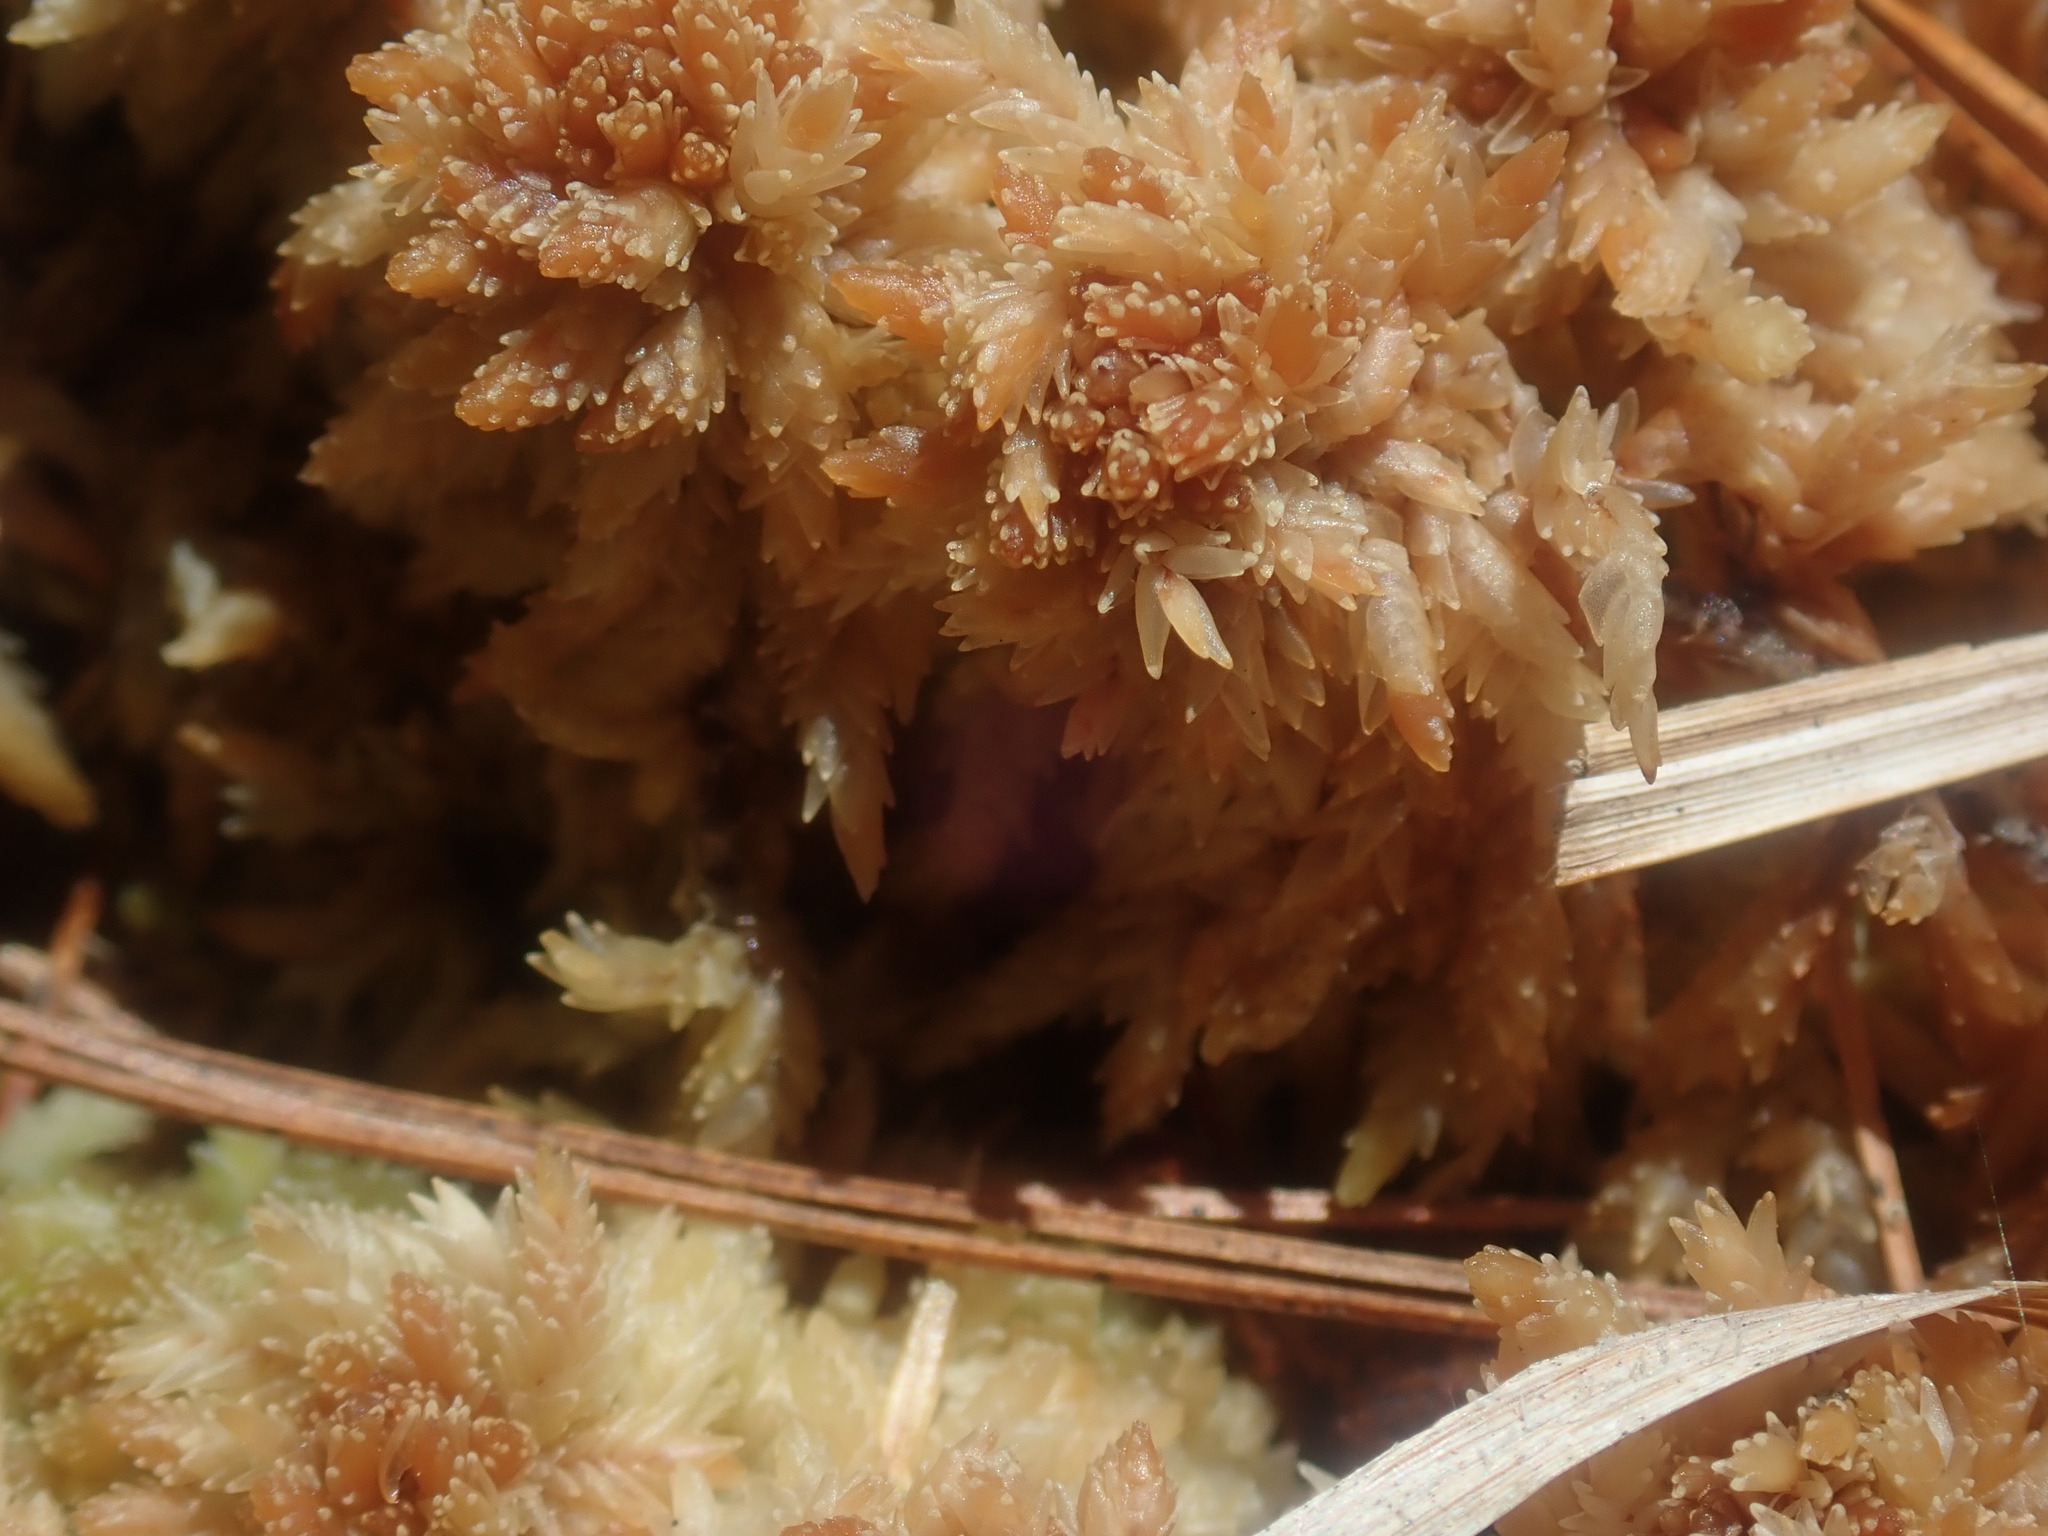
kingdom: Plantae
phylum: Bryophyta
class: Sphagnopsida
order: Sphagnales
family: Sphagnaceae
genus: Sphagnum
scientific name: Sphagnum
